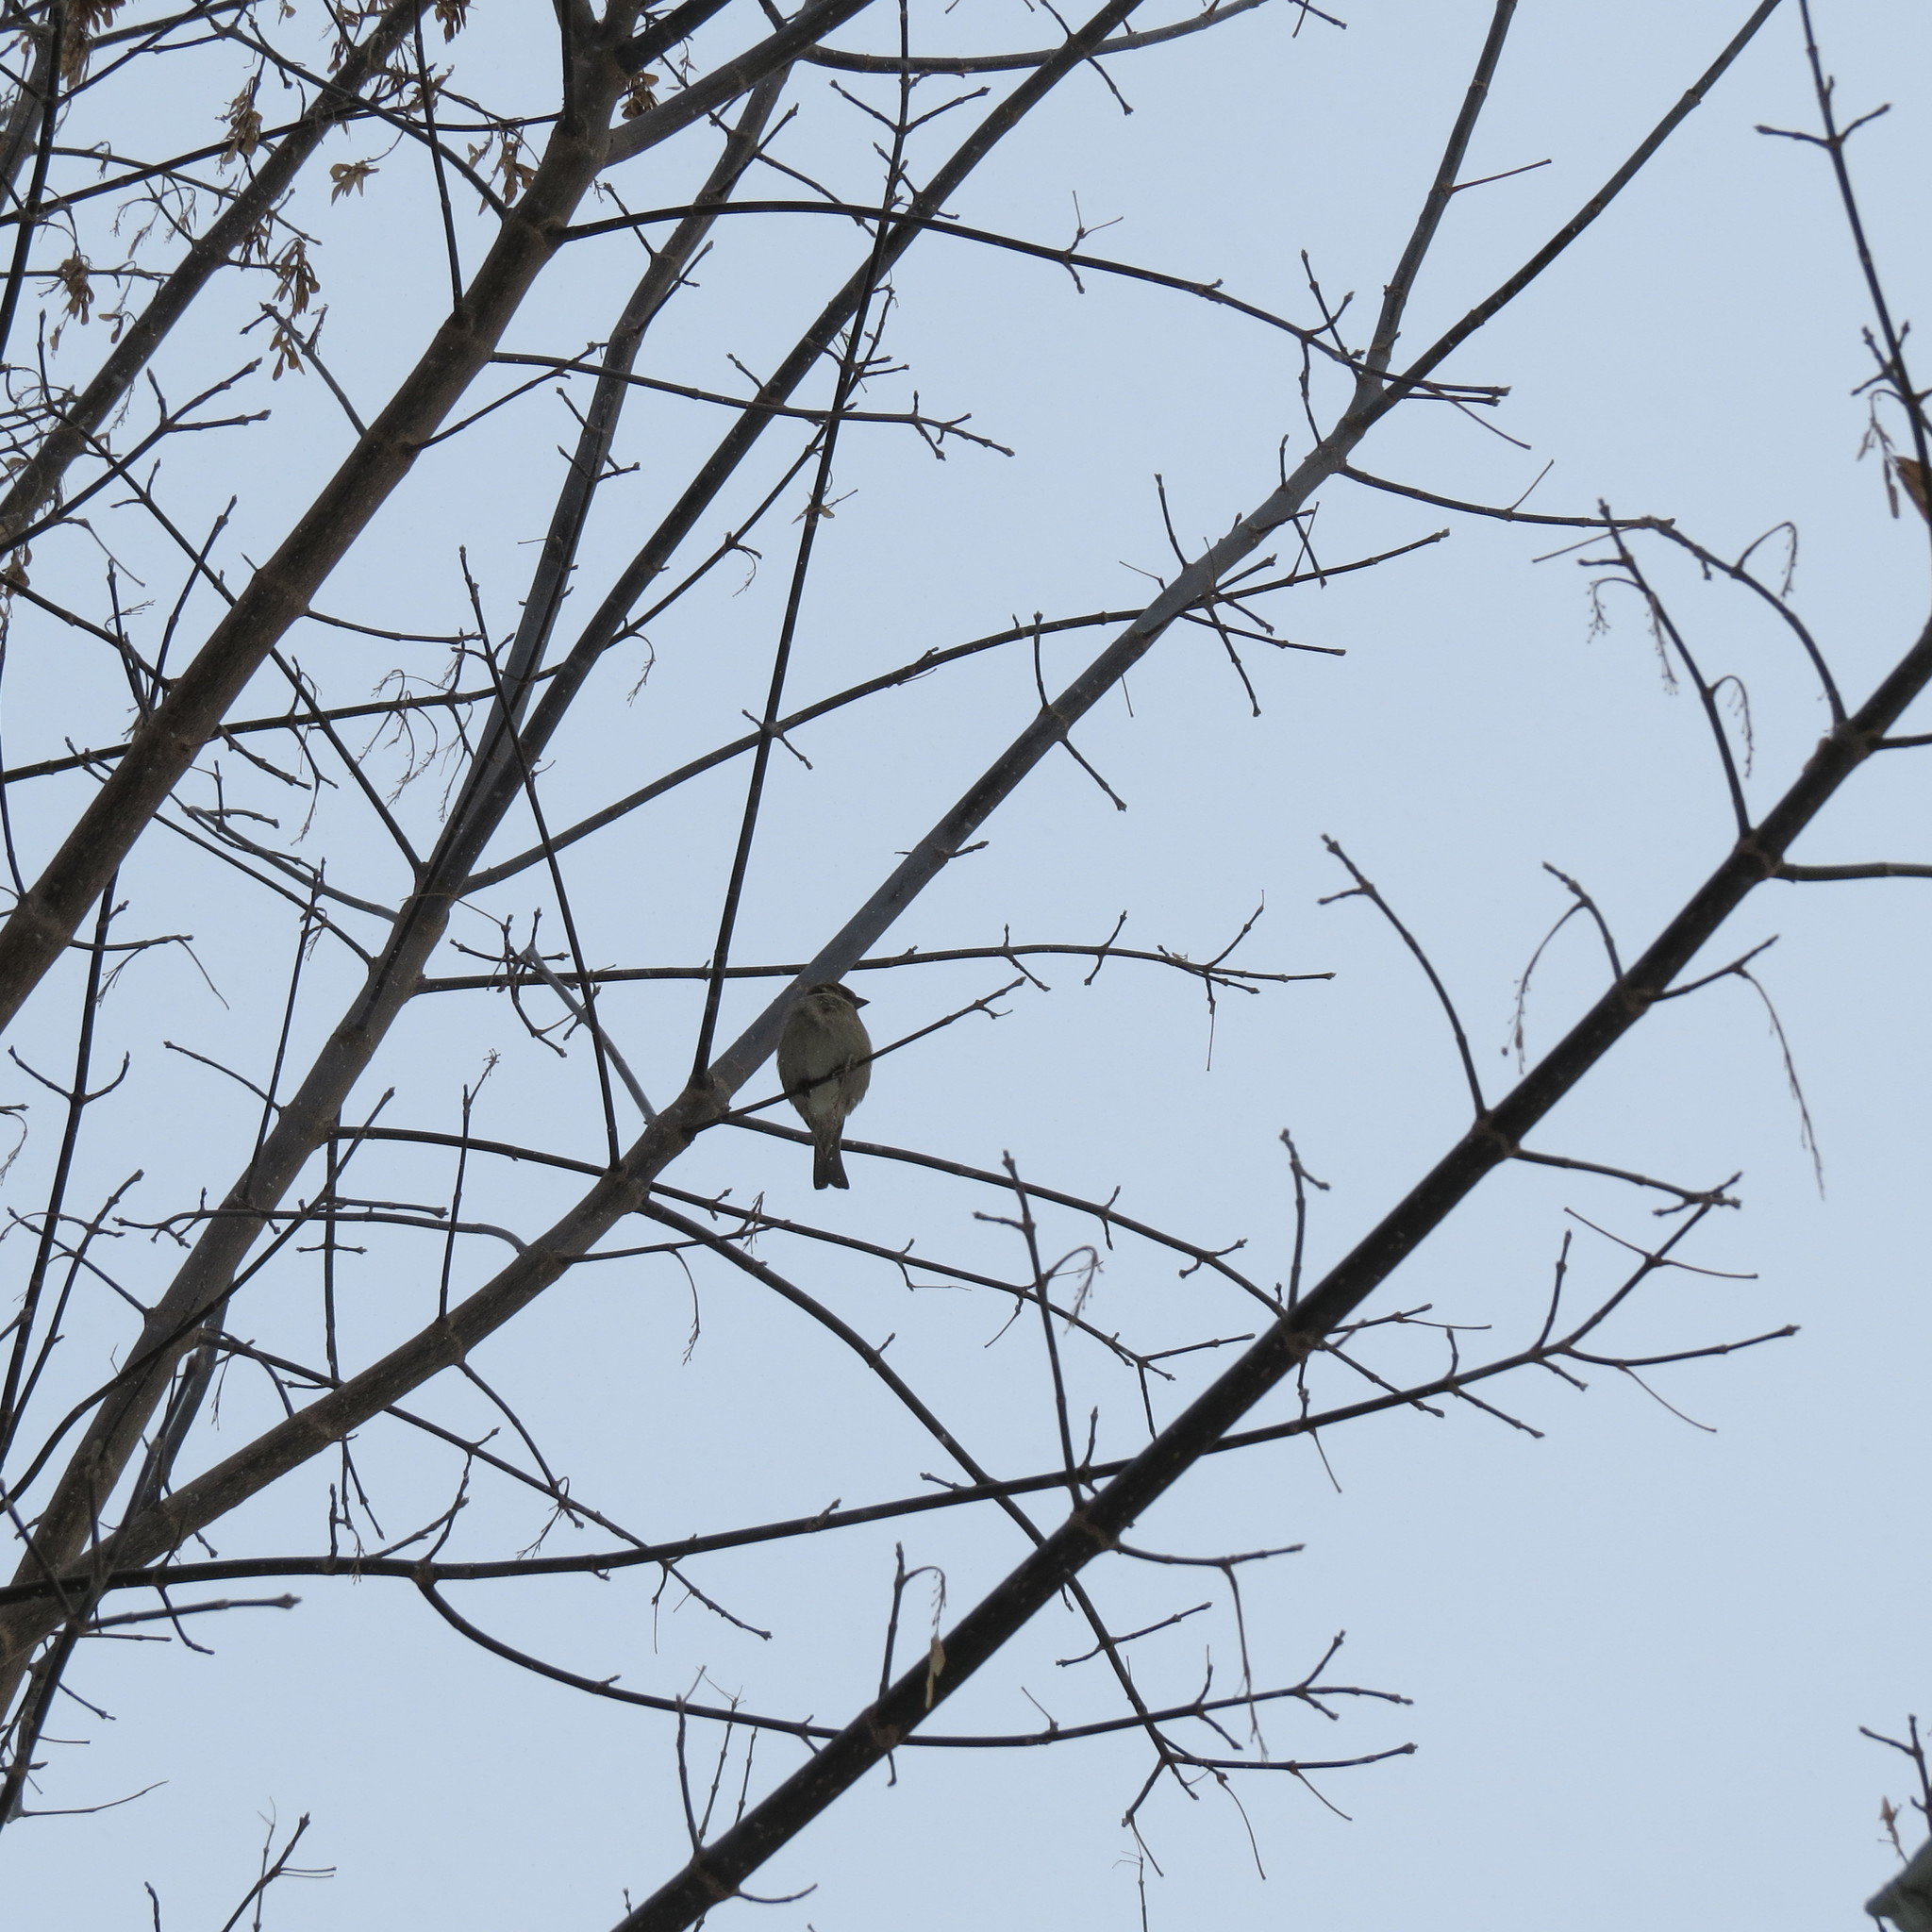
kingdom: Animalia
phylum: Chordata
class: Aves
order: Passeriformes
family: Passeridae
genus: Passer
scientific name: Passer domesticus
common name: House sparrow
